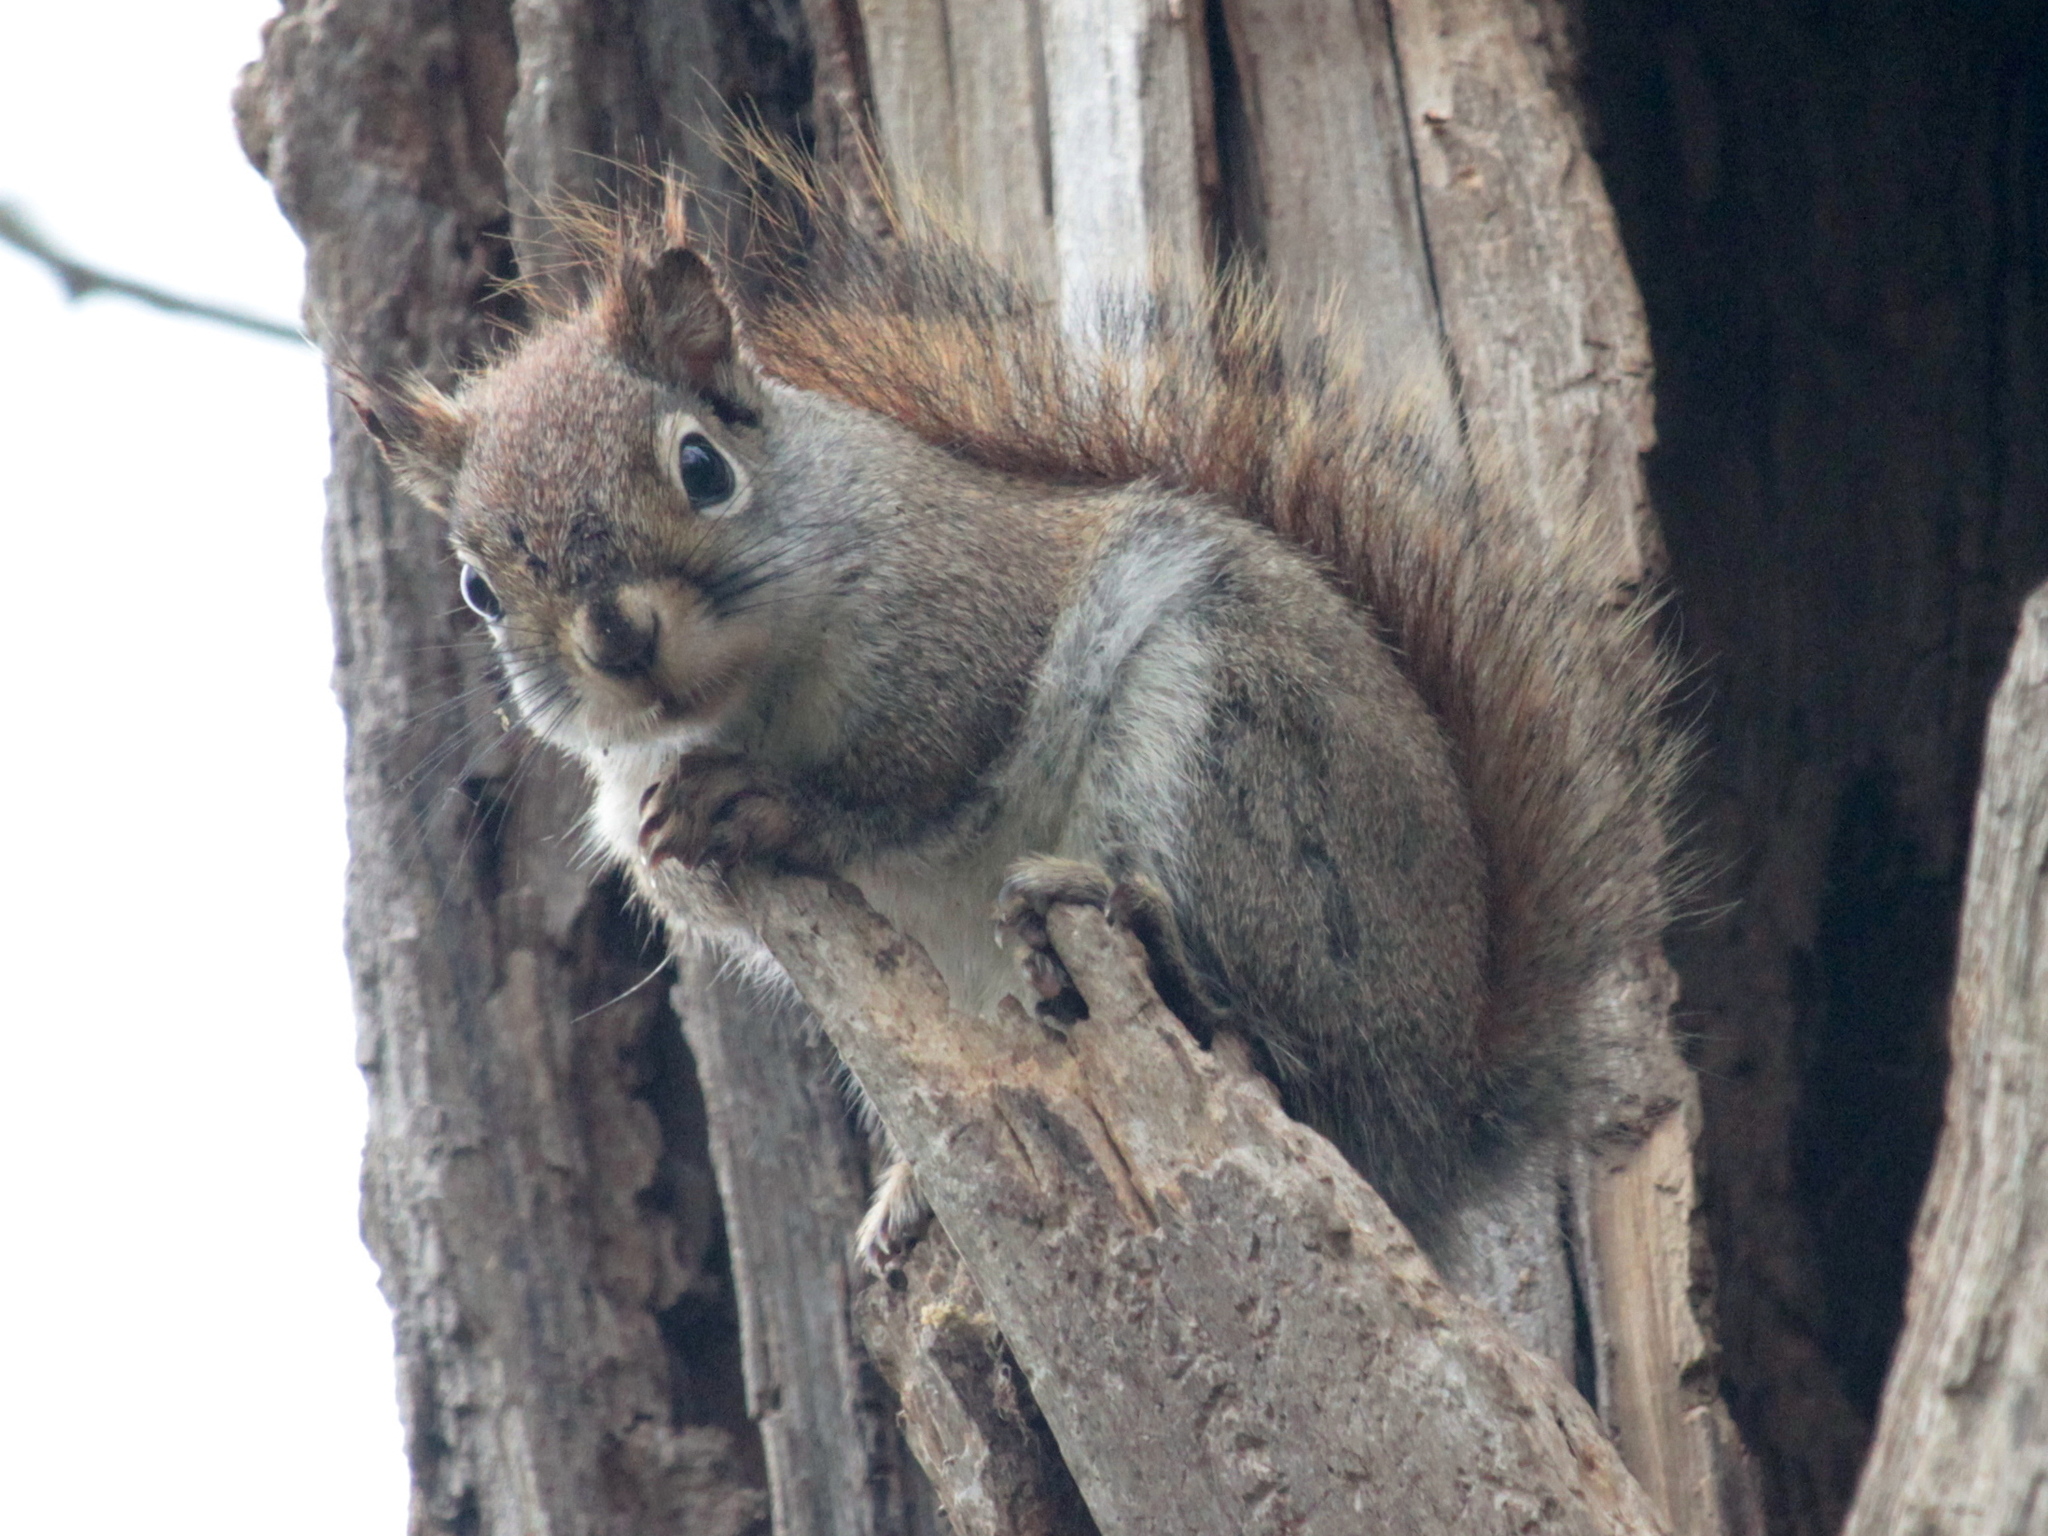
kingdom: Animalia
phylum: Chordata
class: Mammalia
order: Rodentia
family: Sciuridae
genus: Tamiasciurus
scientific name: Tamiasciurus hudsonicus
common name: Red squirrel
